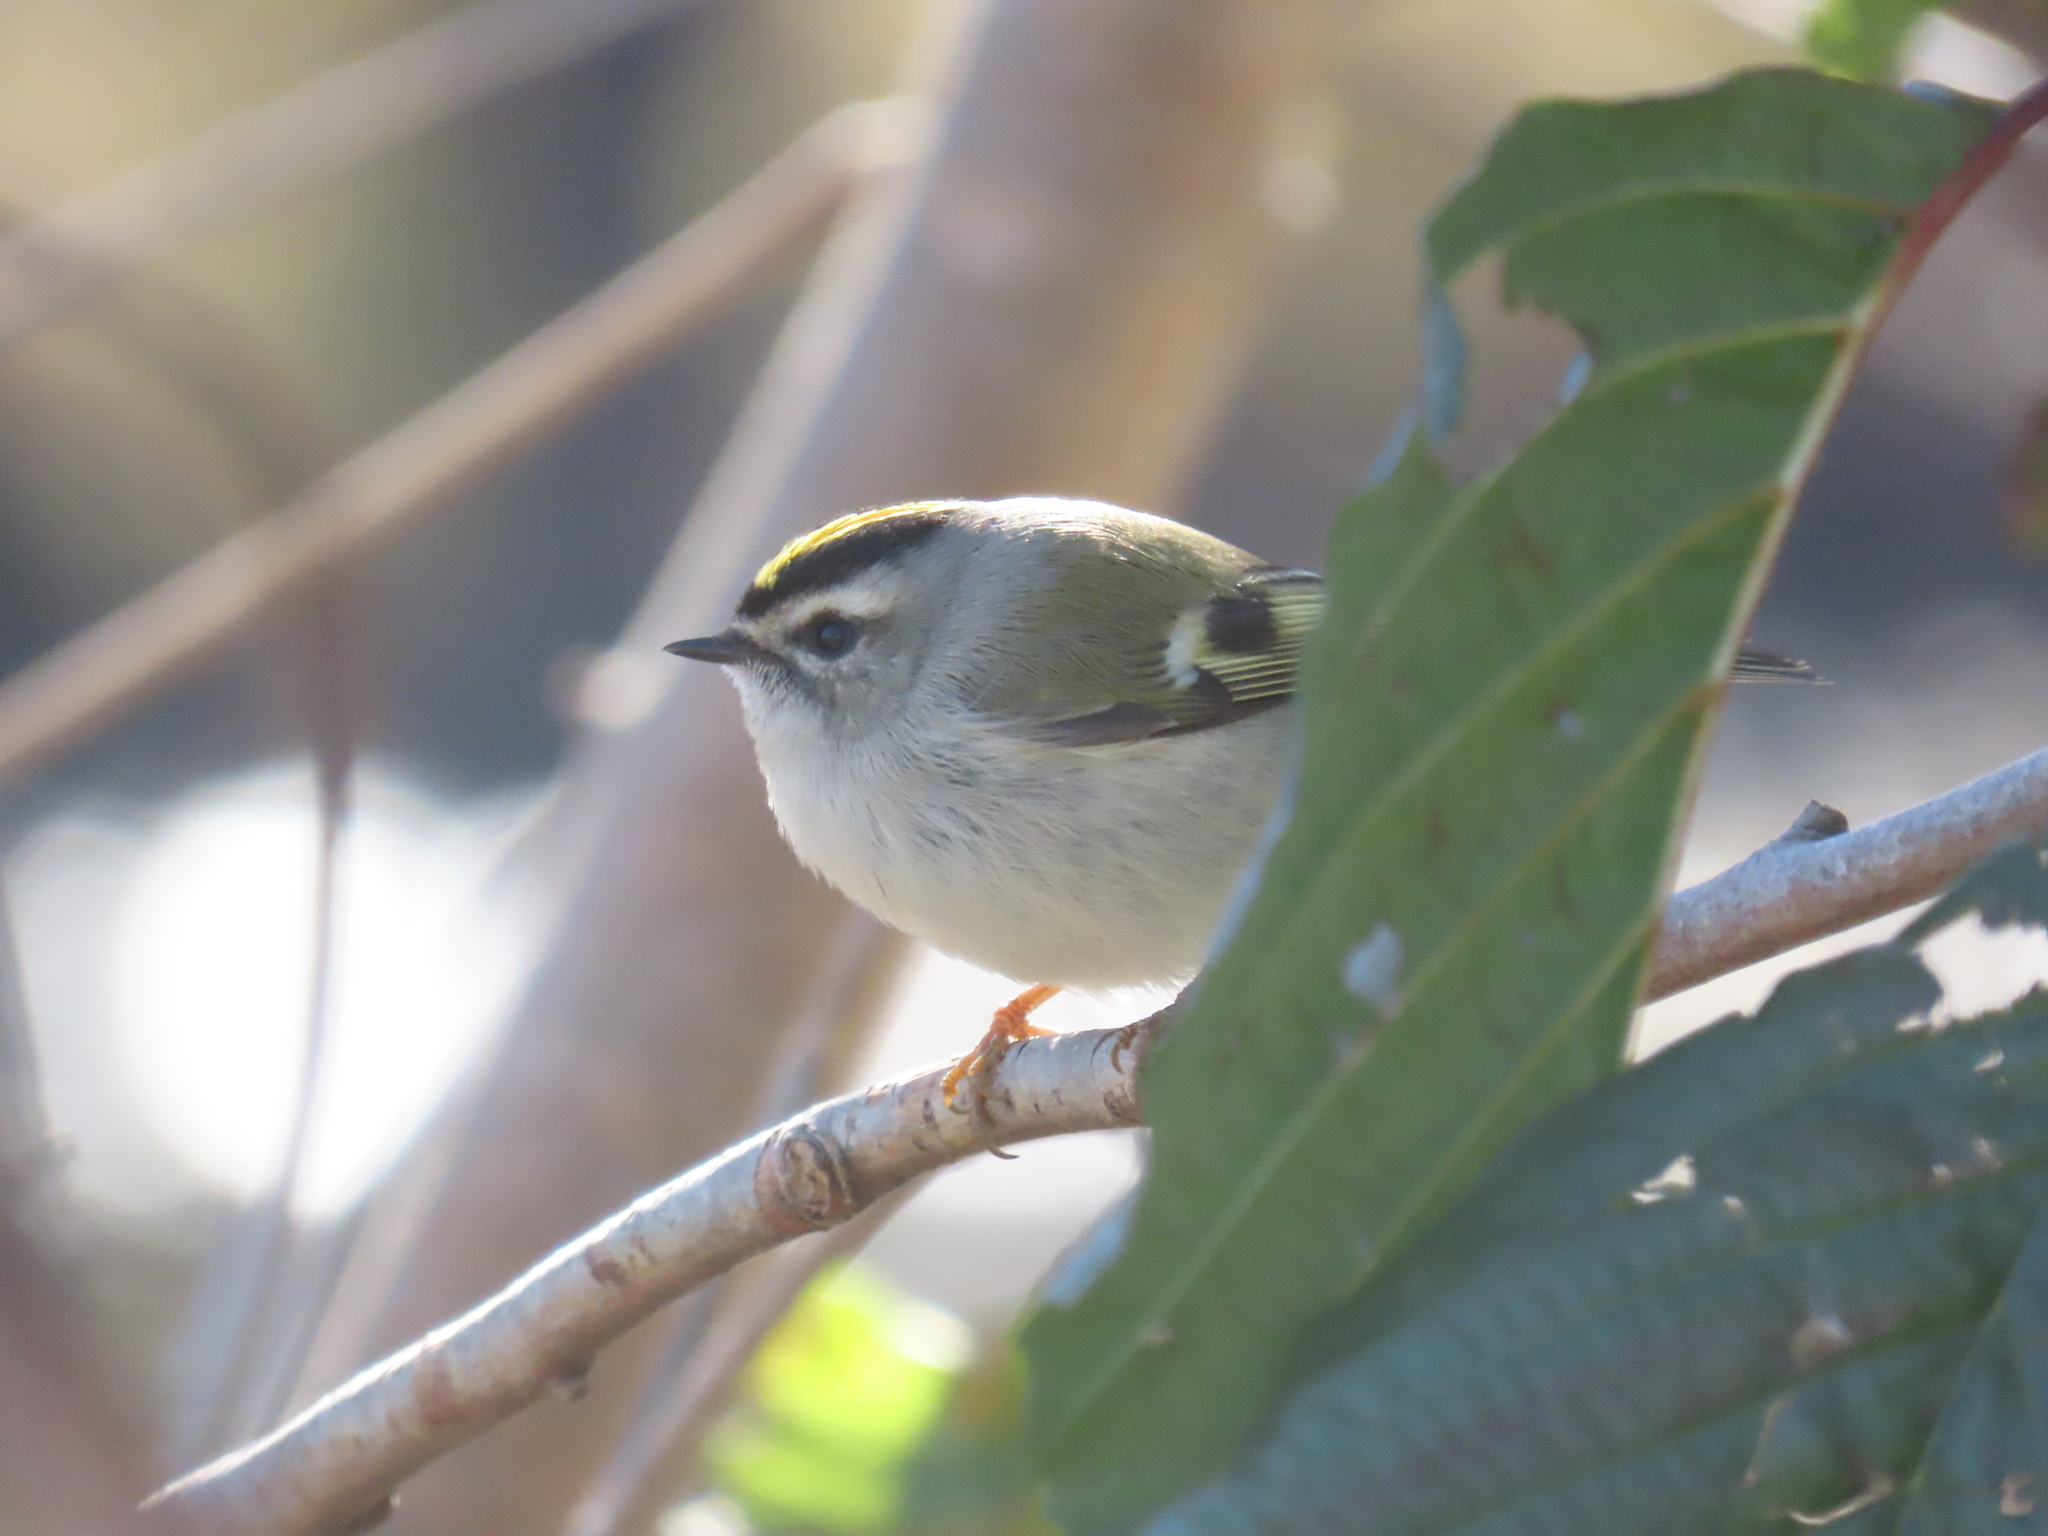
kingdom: Animalia
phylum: Chordata
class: Aves
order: Passeriformes
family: Regulidae
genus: Regulus
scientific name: Regulus satrapa
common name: Golden-crowned kinglet
